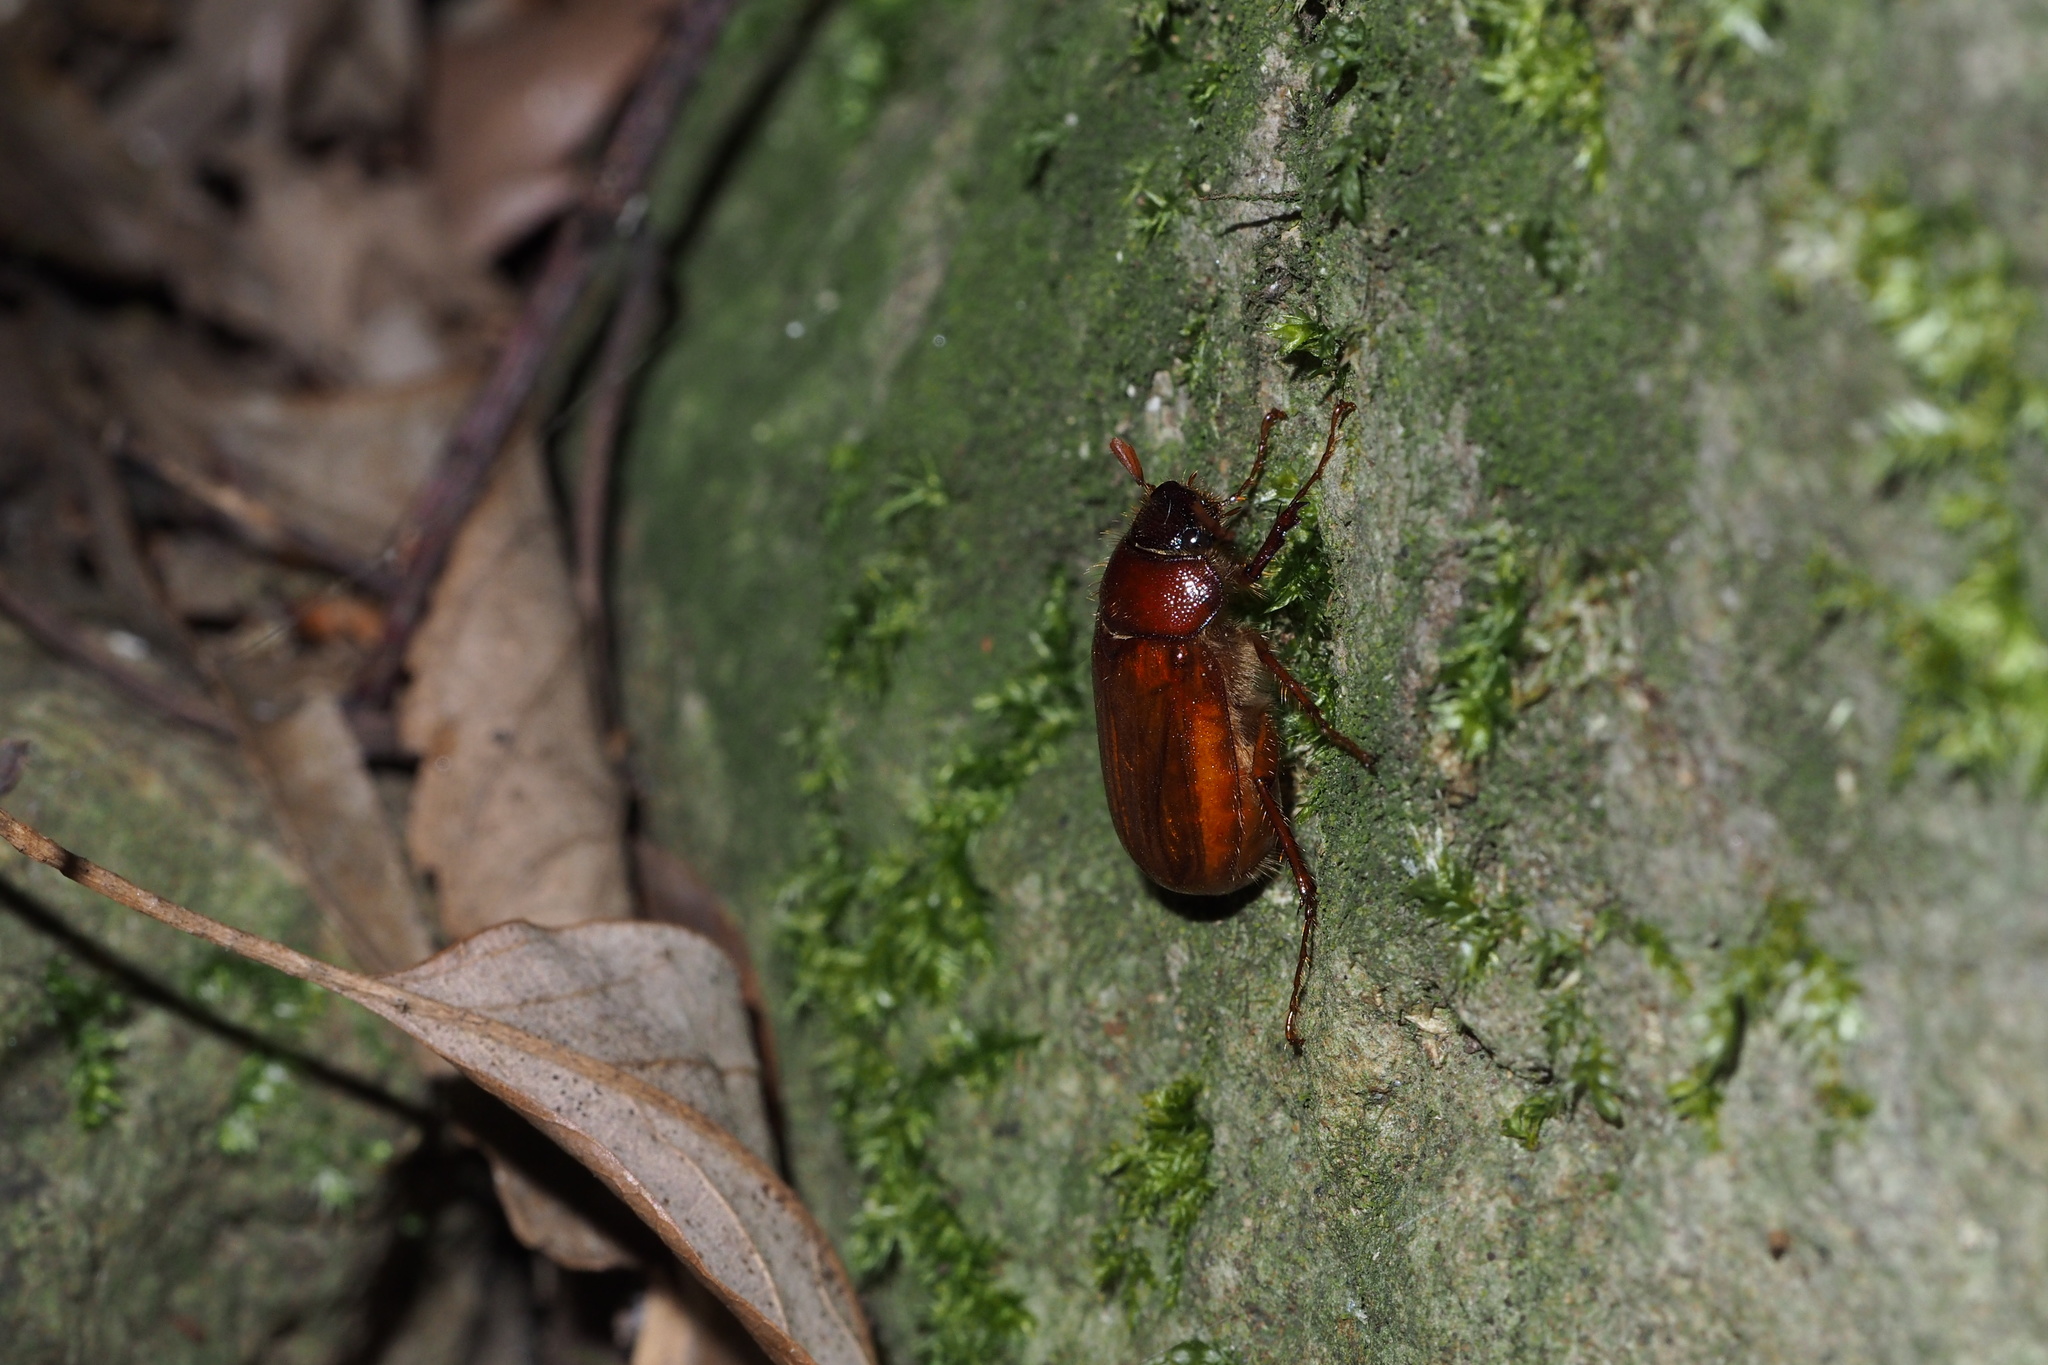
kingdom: Animalia
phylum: Arthropoda
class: Insecta
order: Coleoptera
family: Scarabaeidae
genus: Heptophylla
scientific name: Heptophylla picea
